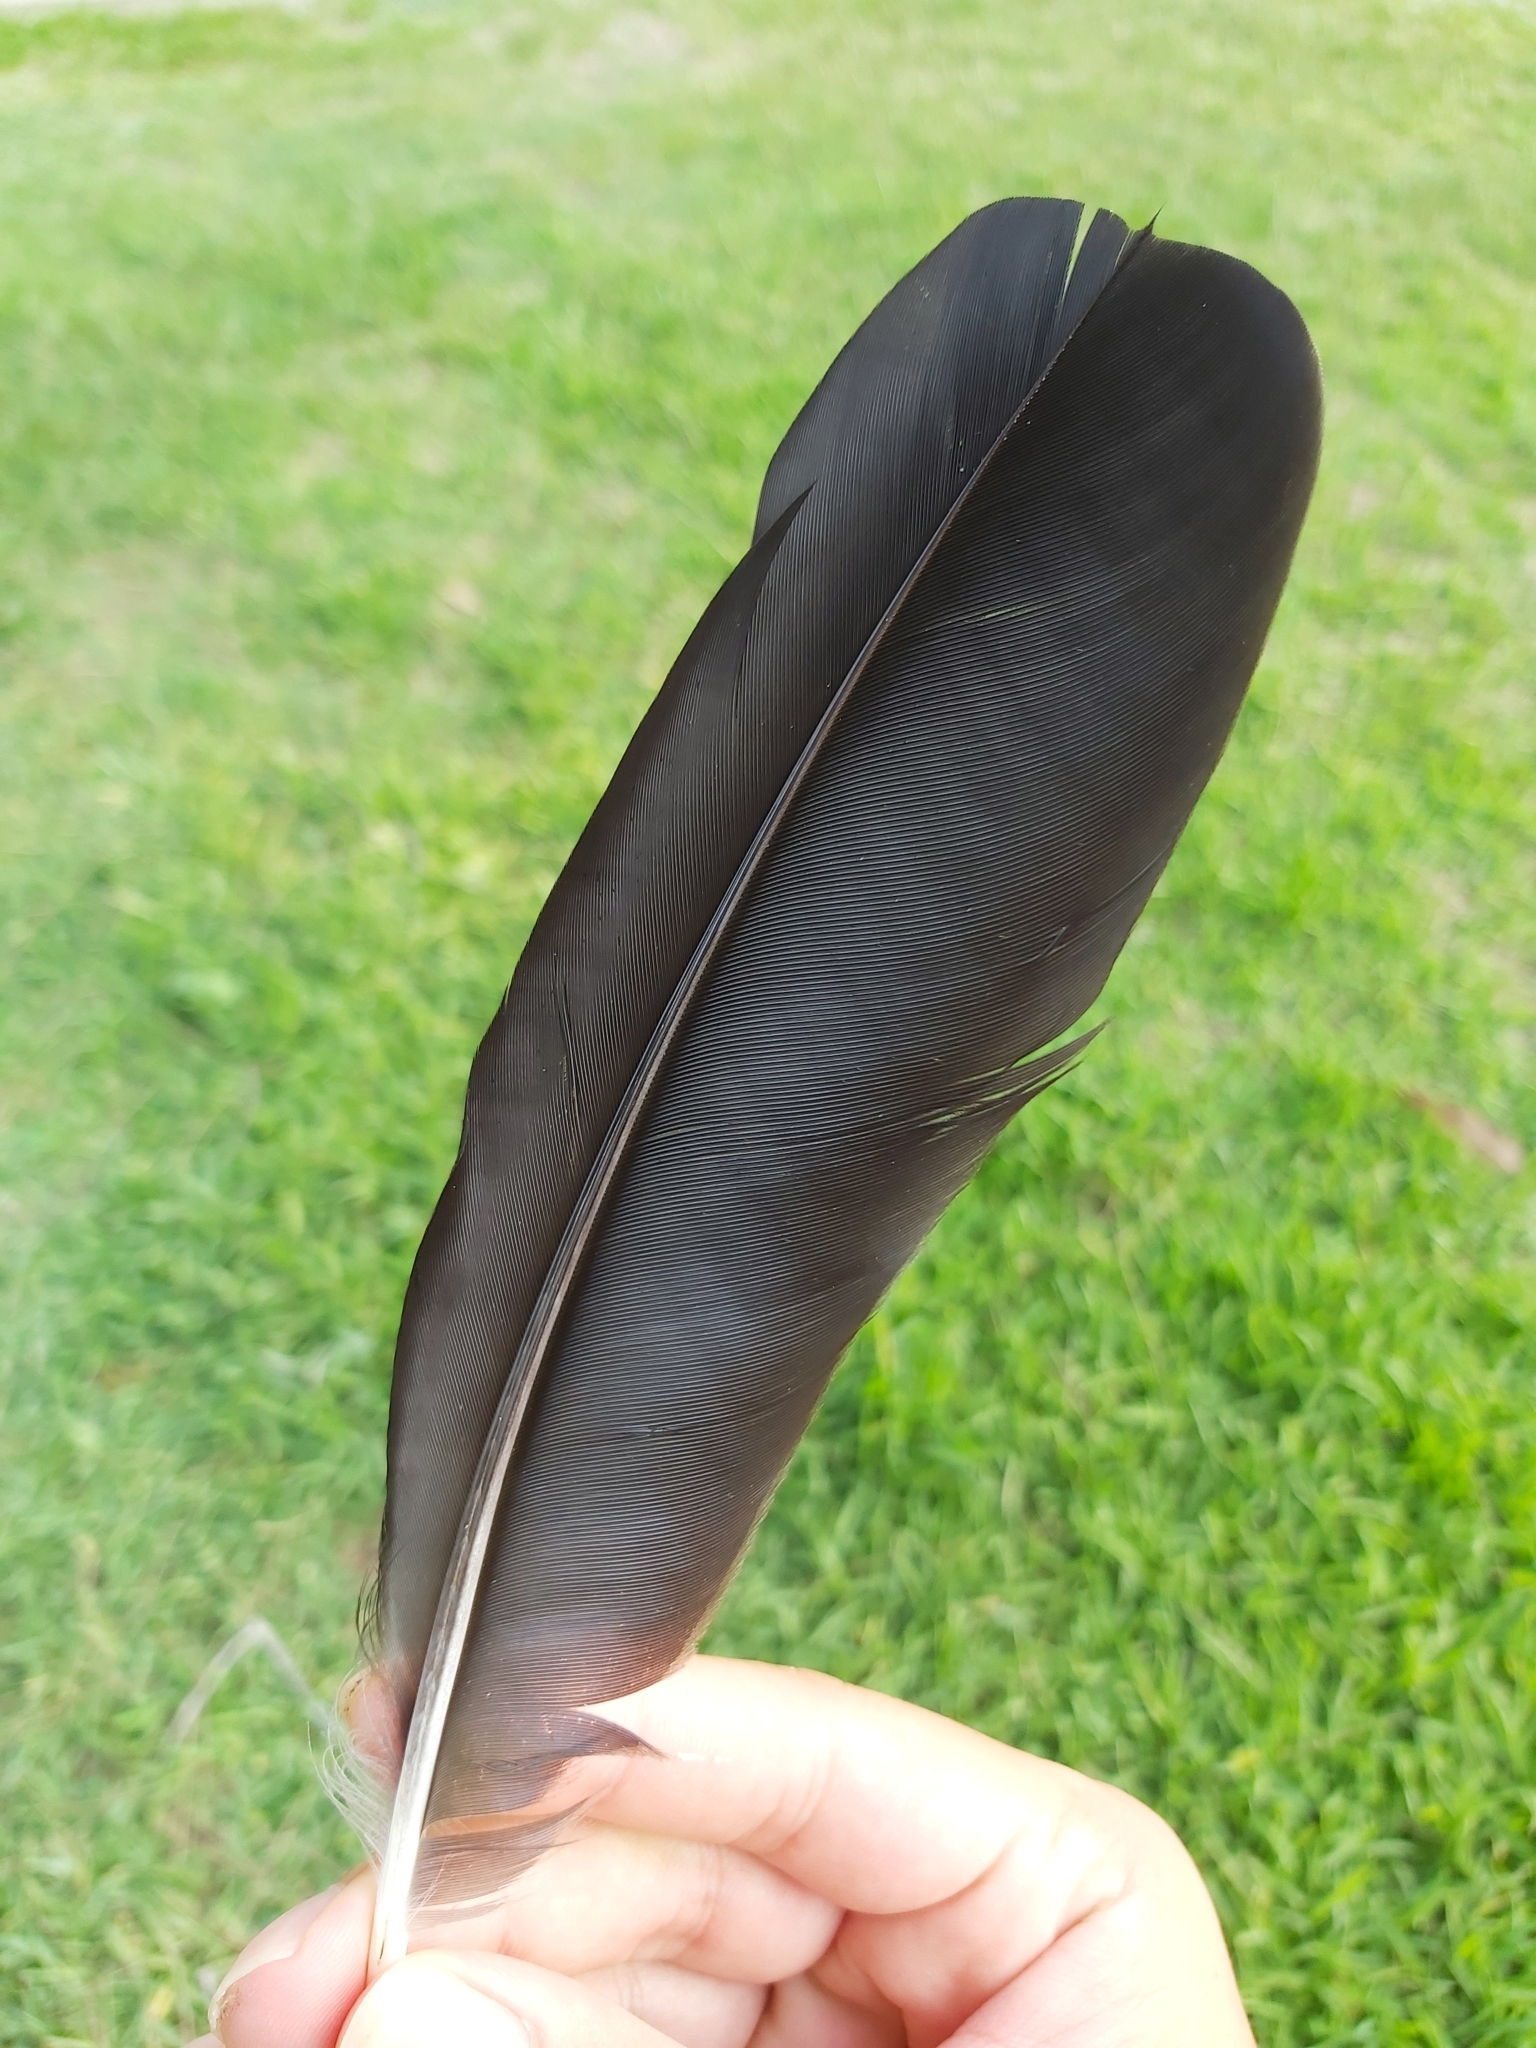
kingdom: Animalia
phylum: Chordata
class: Aves
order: Passeriformes
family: Corvidae
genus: Corvus
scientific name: Corvus coronoides
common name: Australian raven
